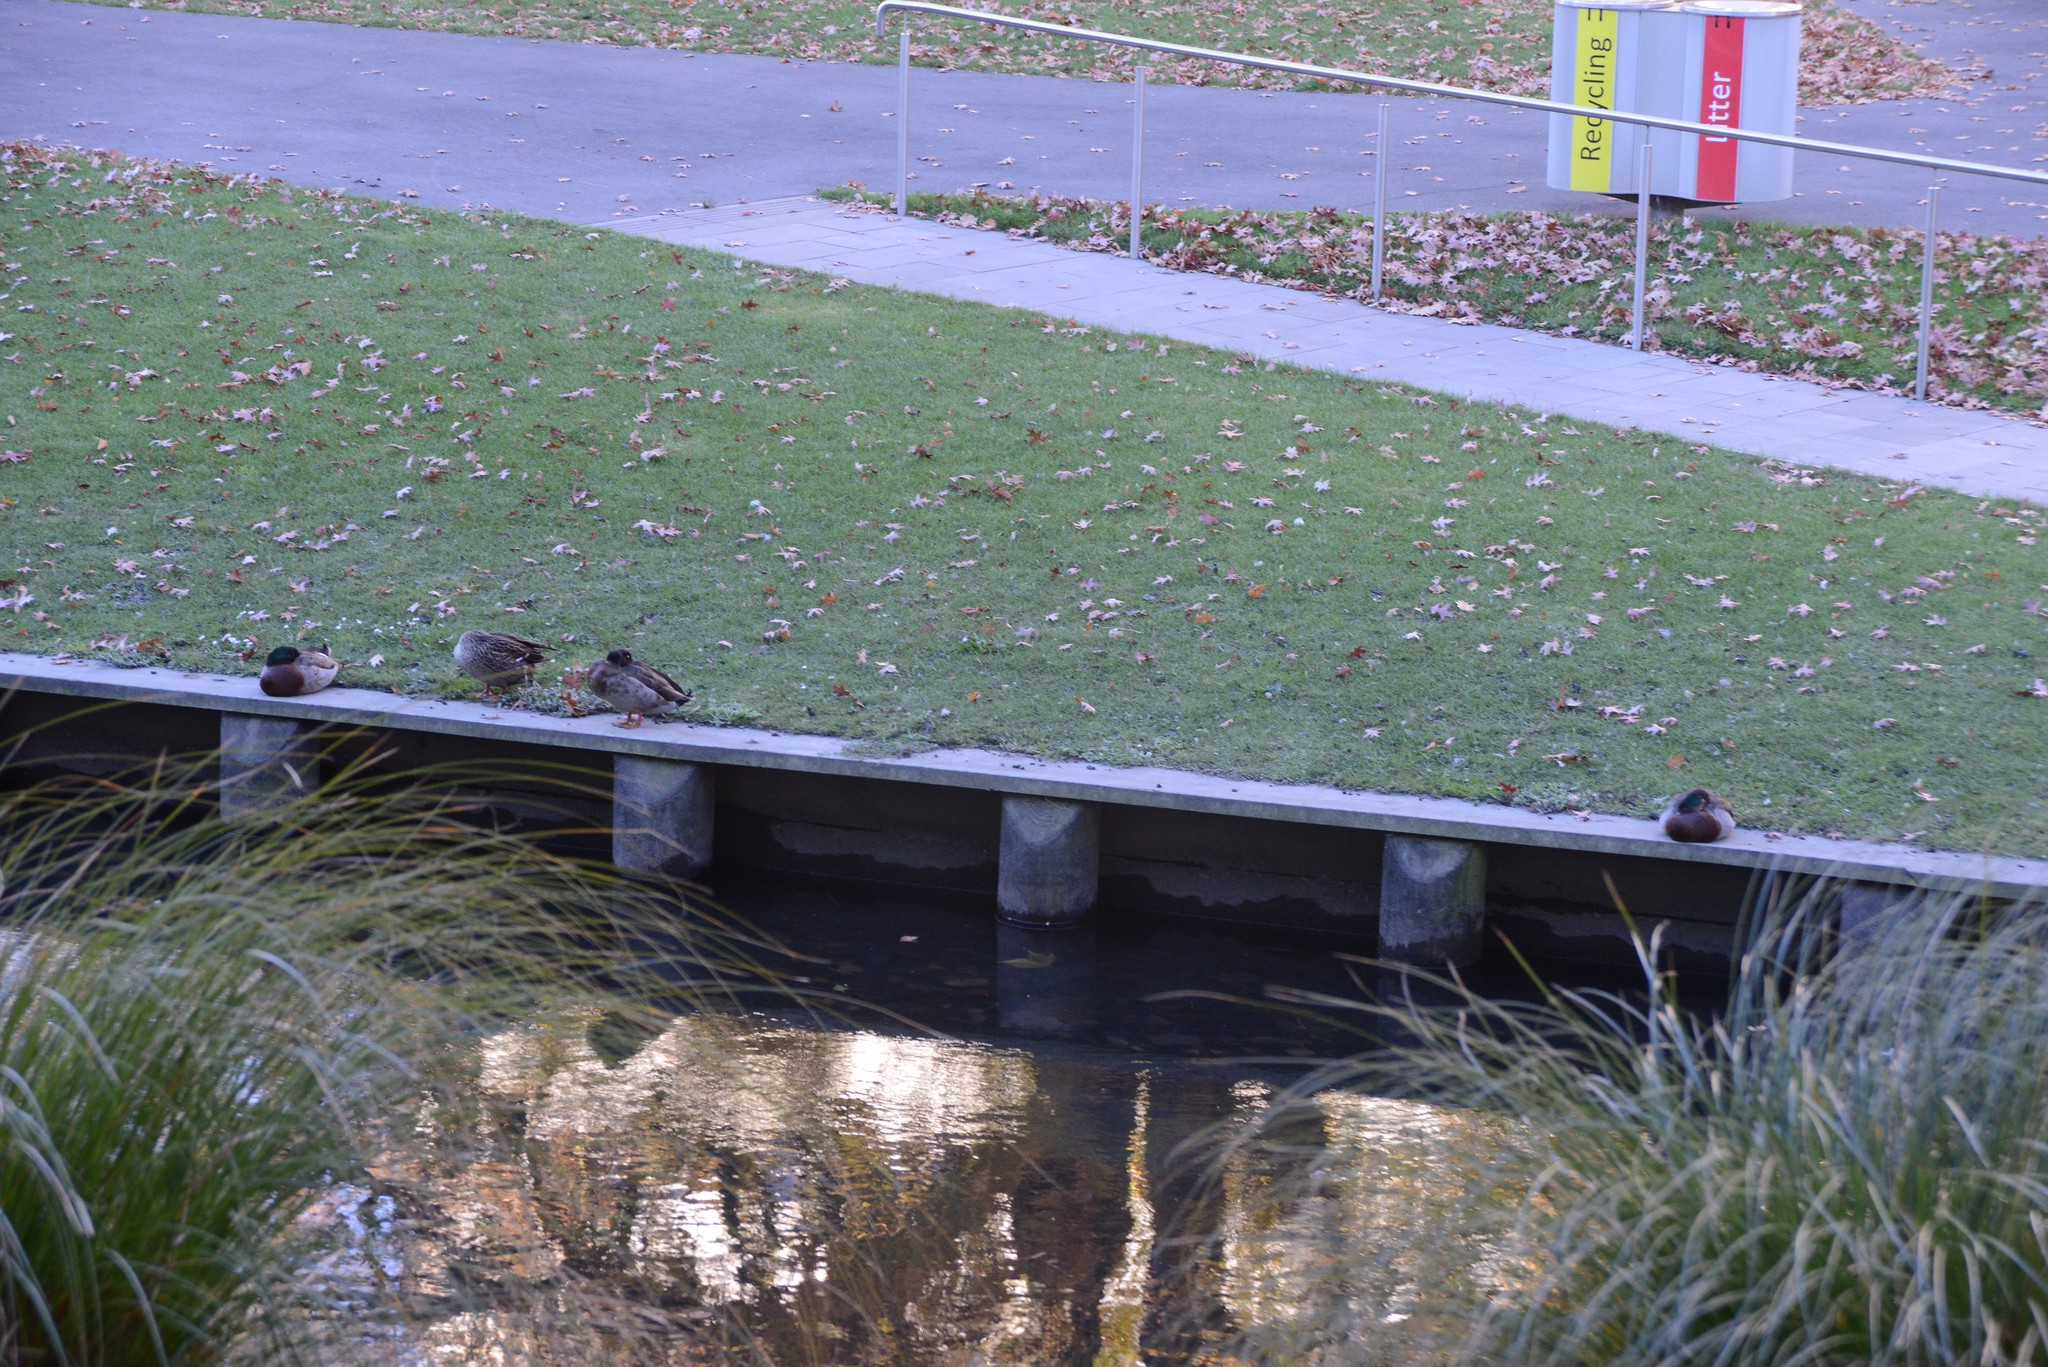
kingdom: Animalia
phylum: Chordata
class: Aves
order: Anseriformes
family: Anatidae
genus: Anas
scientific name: Anas platyrhynchos
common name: Mallard
